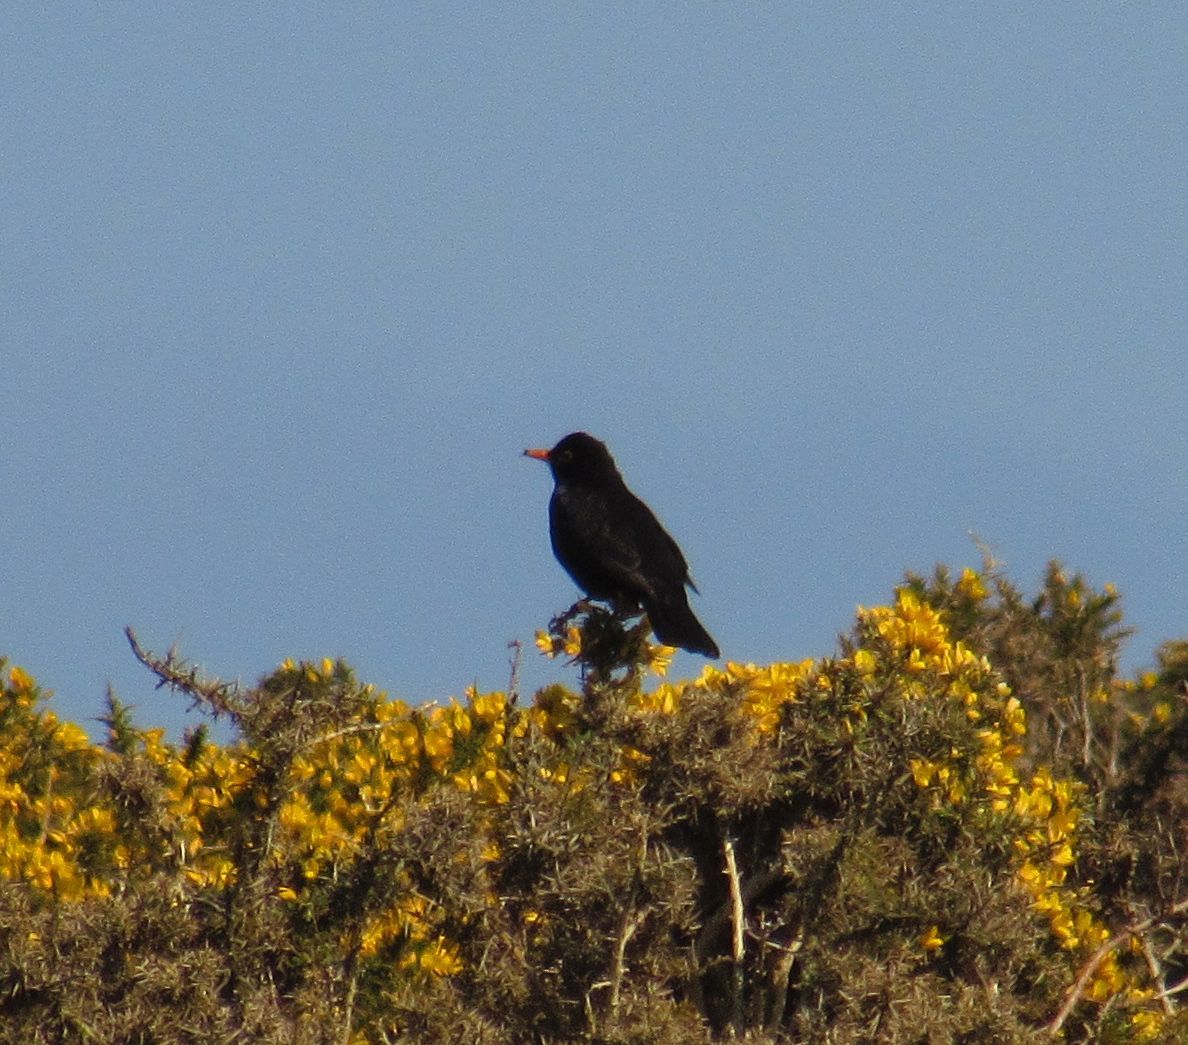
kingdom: Animalia
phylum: Chordata
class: Aves
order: Passeriformes
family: Turdidae
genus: Turdus
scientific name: Turdus merula
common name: Common blackbird
